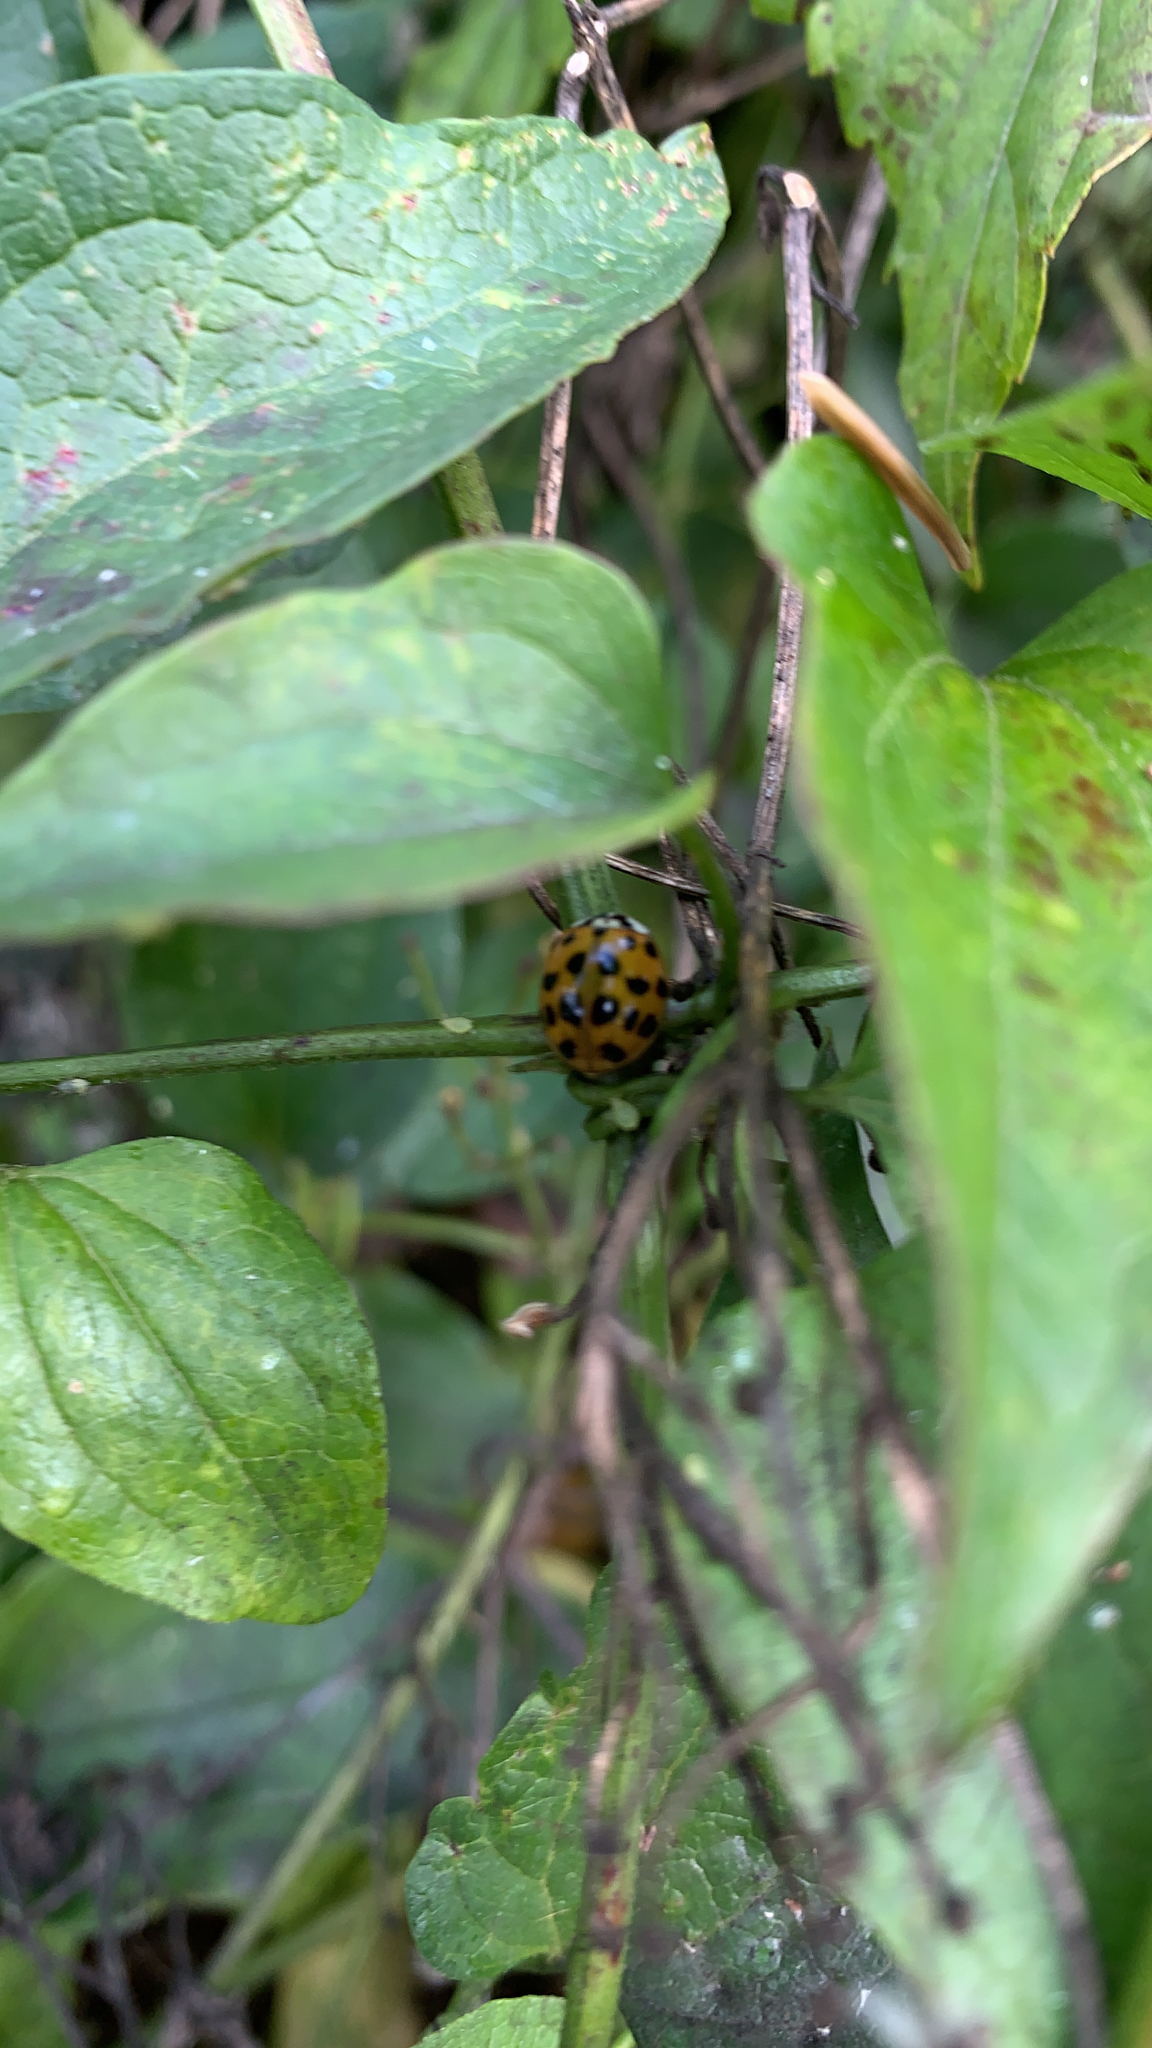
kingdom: Animalia
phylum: Arthropoda
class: Insecta
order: Coleoptera
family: Coccinellidae
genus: Harmonia
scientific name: Harmonia axyridis
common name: Harlequin ladybird
